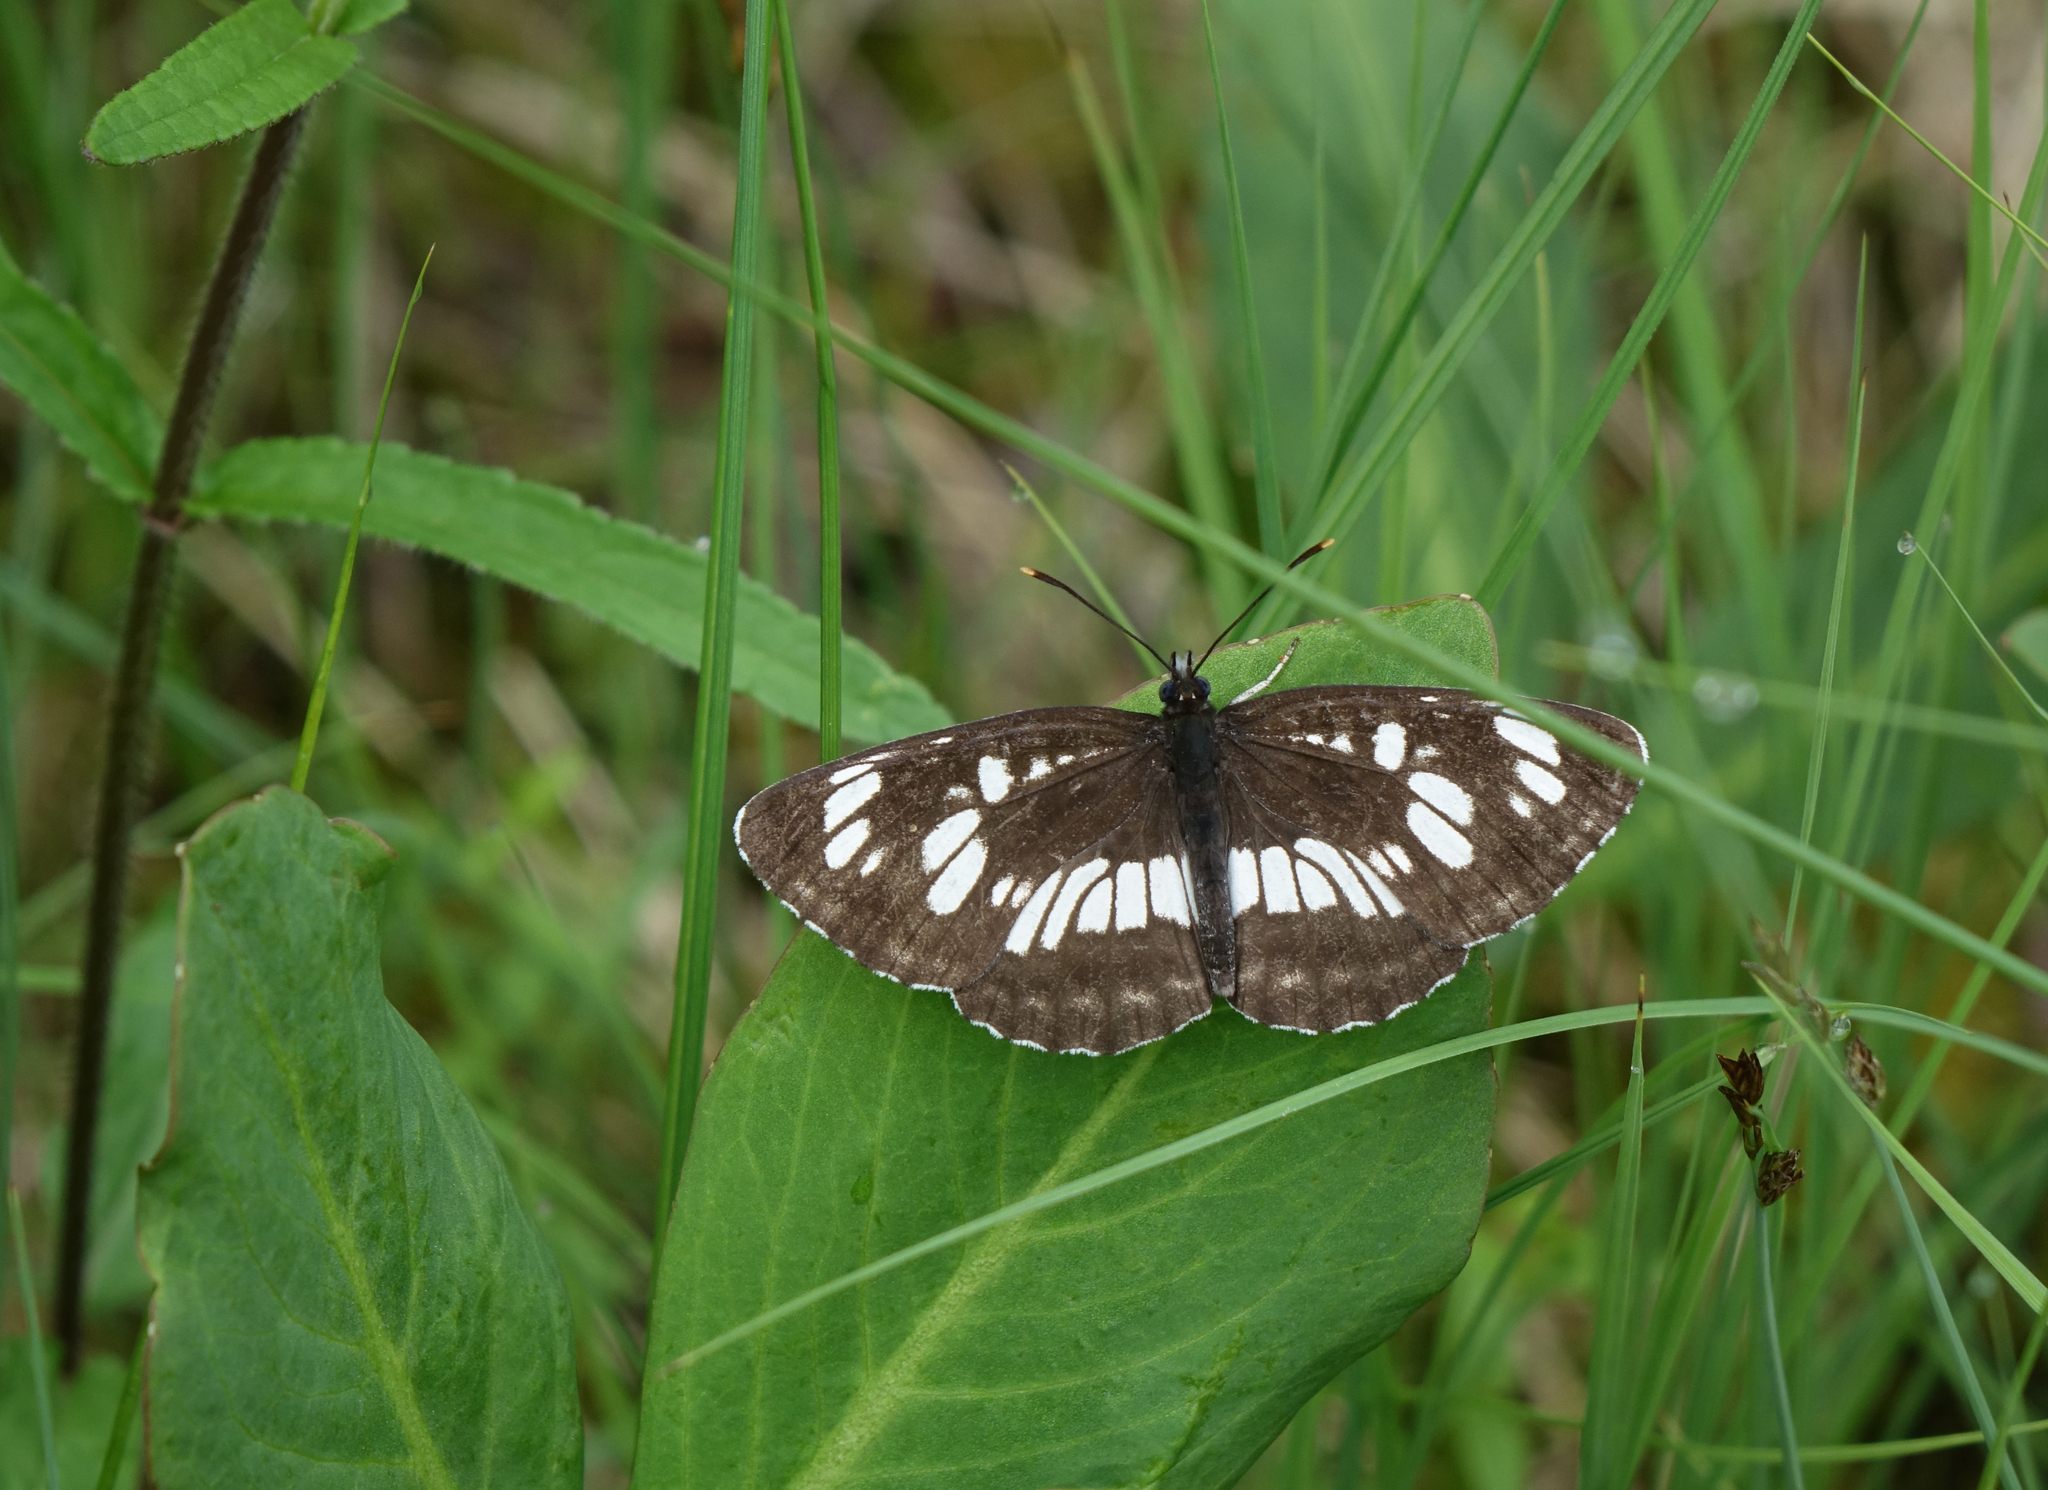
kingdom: Animalia
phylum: Arthropoda
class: Insecta
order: Lepidoptera
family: Nymphalidae
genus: Neptis
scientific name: Neptis rivularis
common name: Hungarian glider
